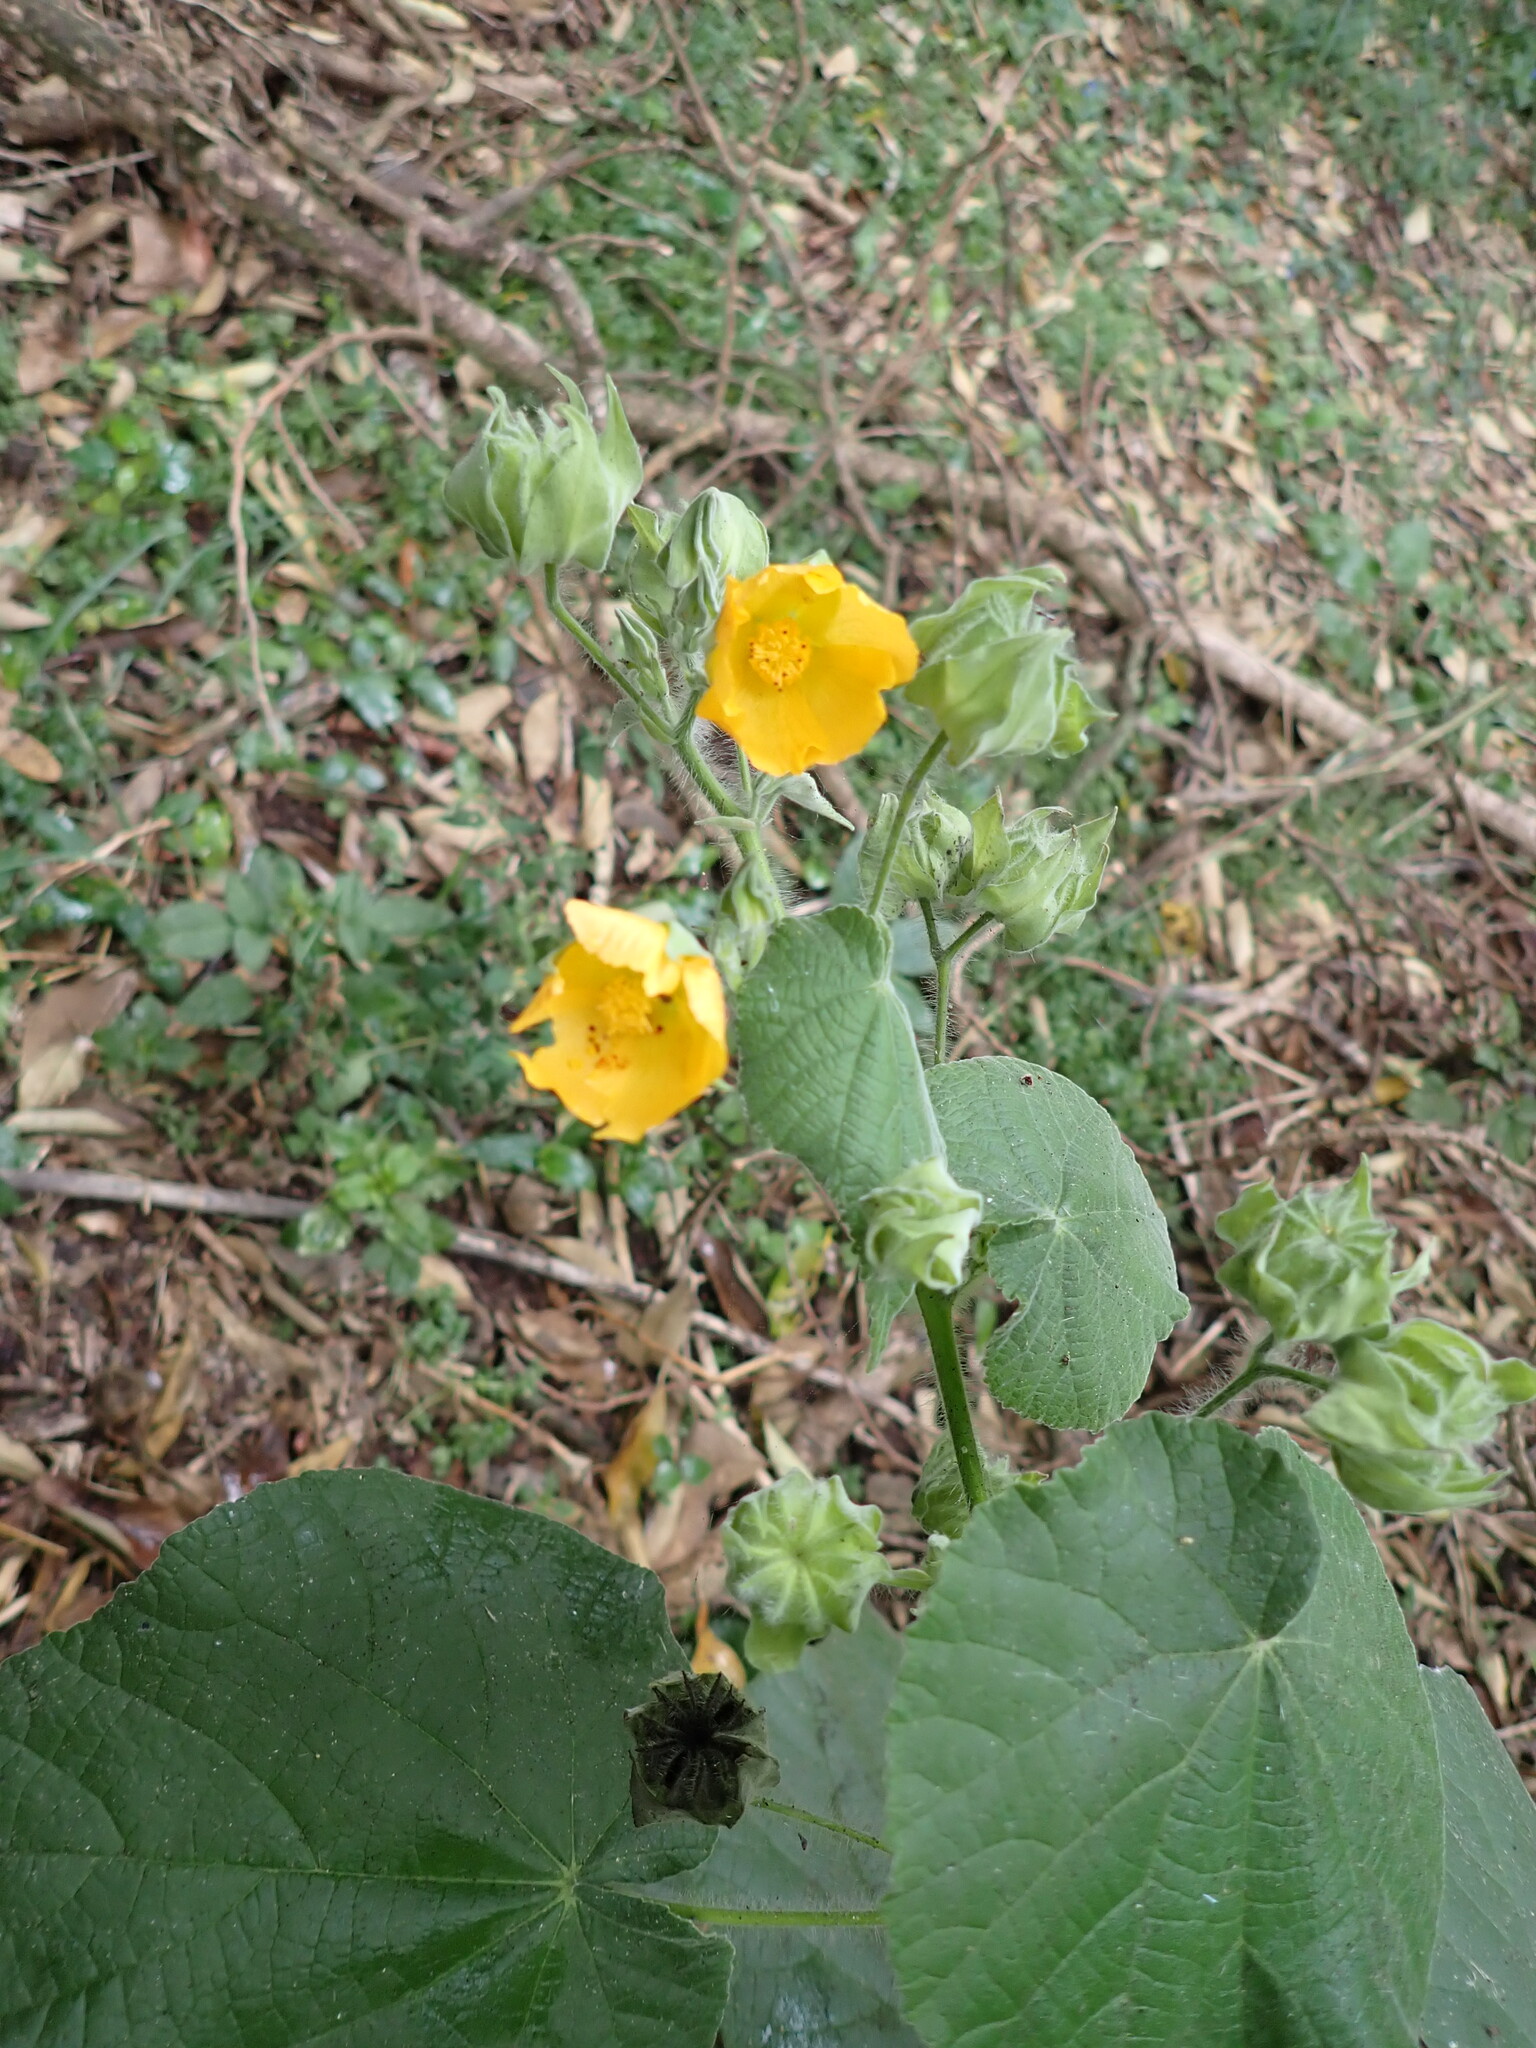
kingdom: Plantae
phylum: Tracheophyta
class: Magnoliopsida
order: Malvales
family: Malvaceae
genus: Abutilon
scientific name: Abutilon grandifolium
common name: Hairy abutilon
